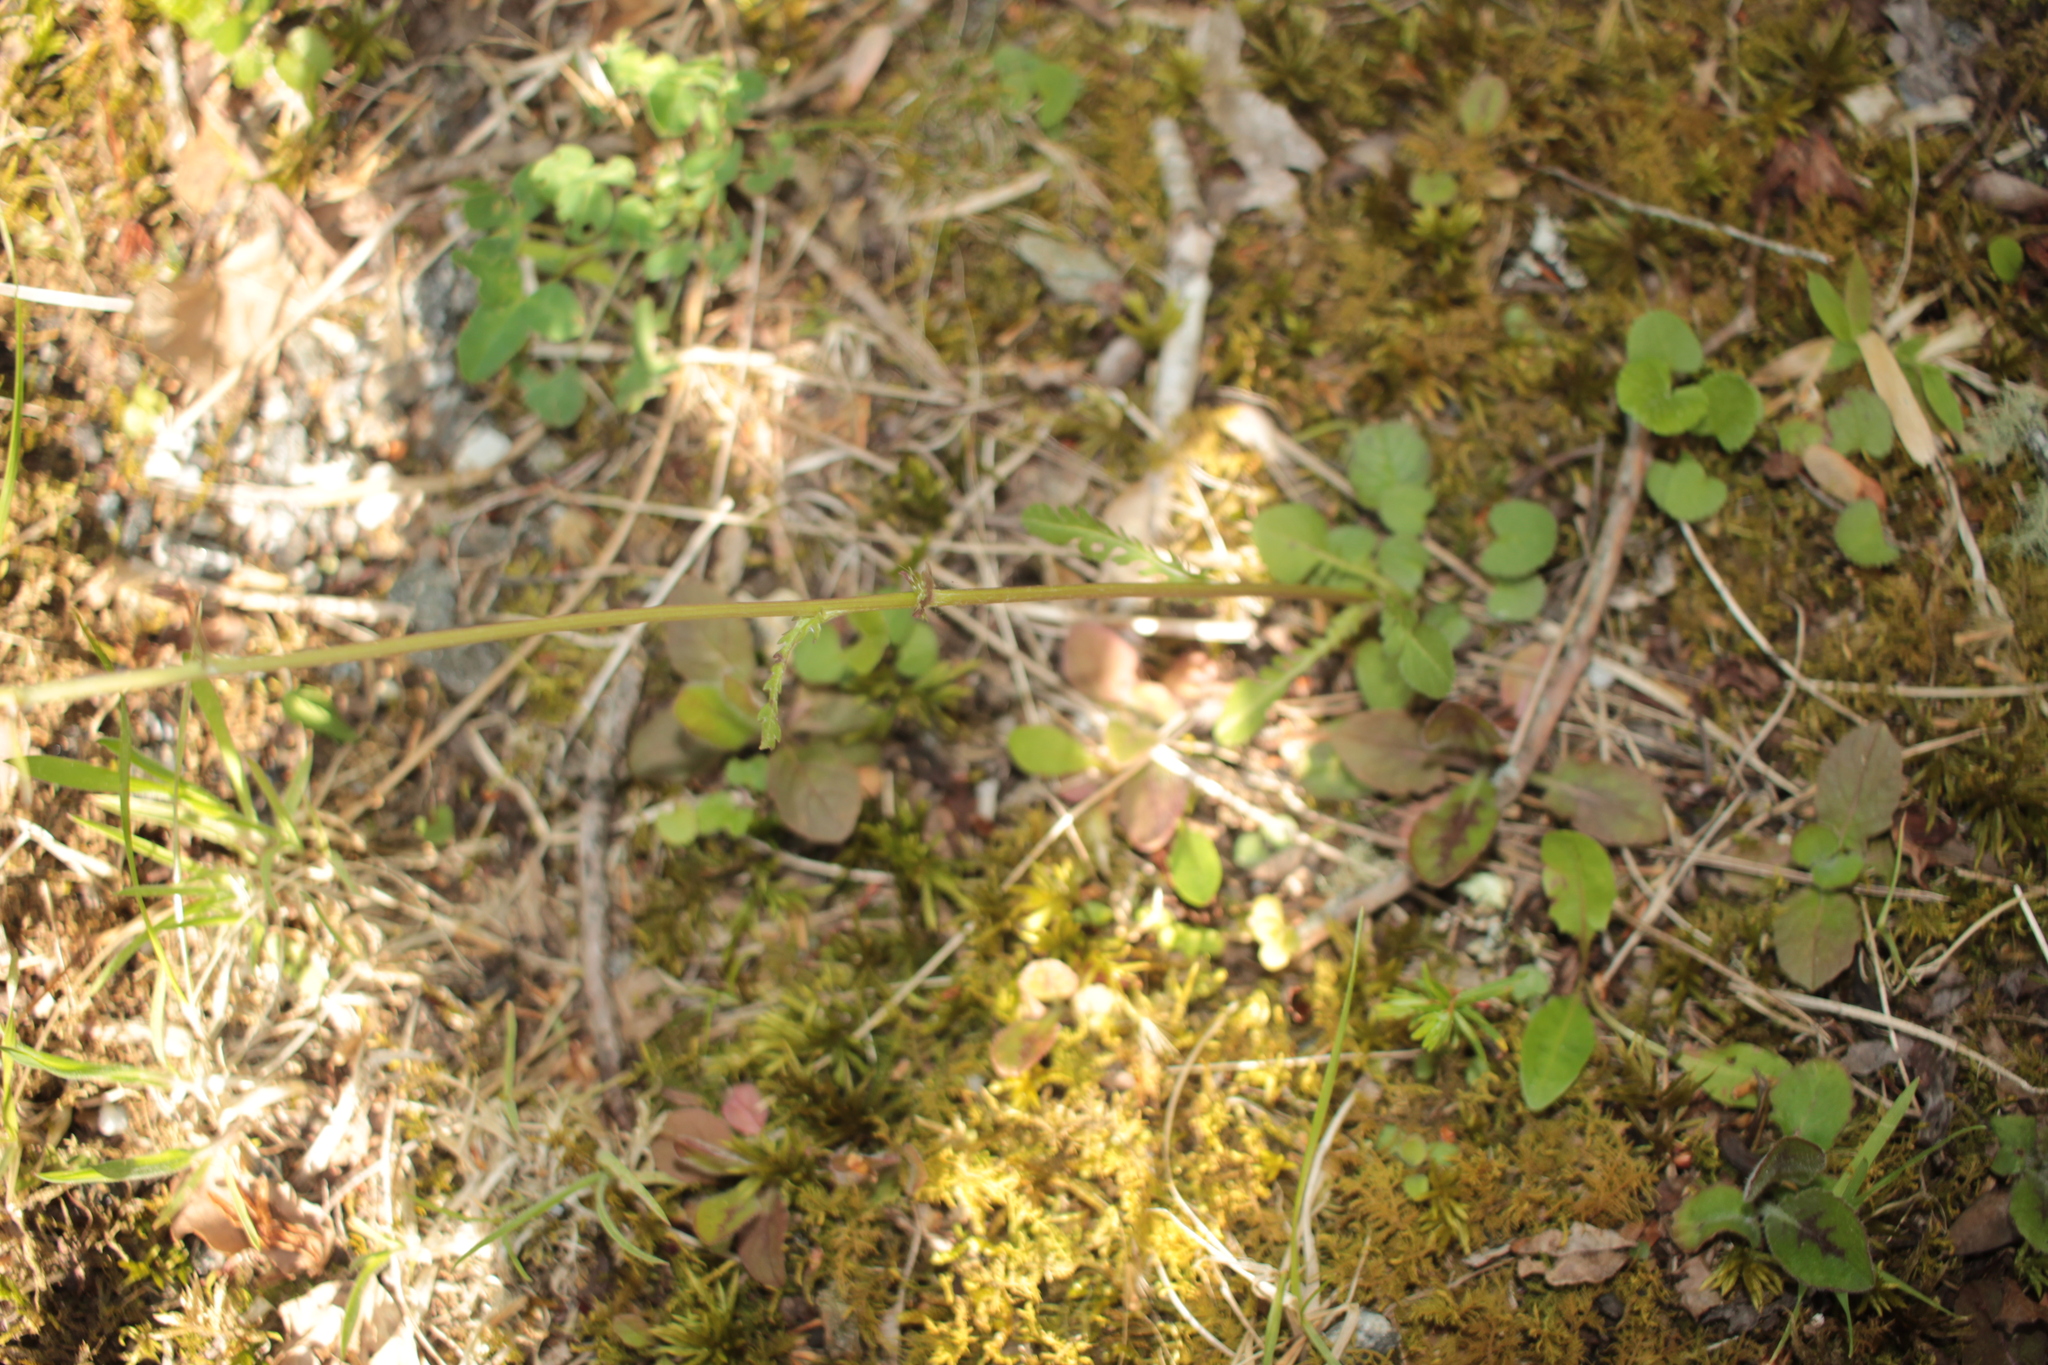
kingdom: Plantae
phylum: Tracheophyta
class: Magnoliopsida
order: Asterales
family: Asteraceae
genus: Packera
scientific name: Packera obovata
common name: Round-leaf ragwort
